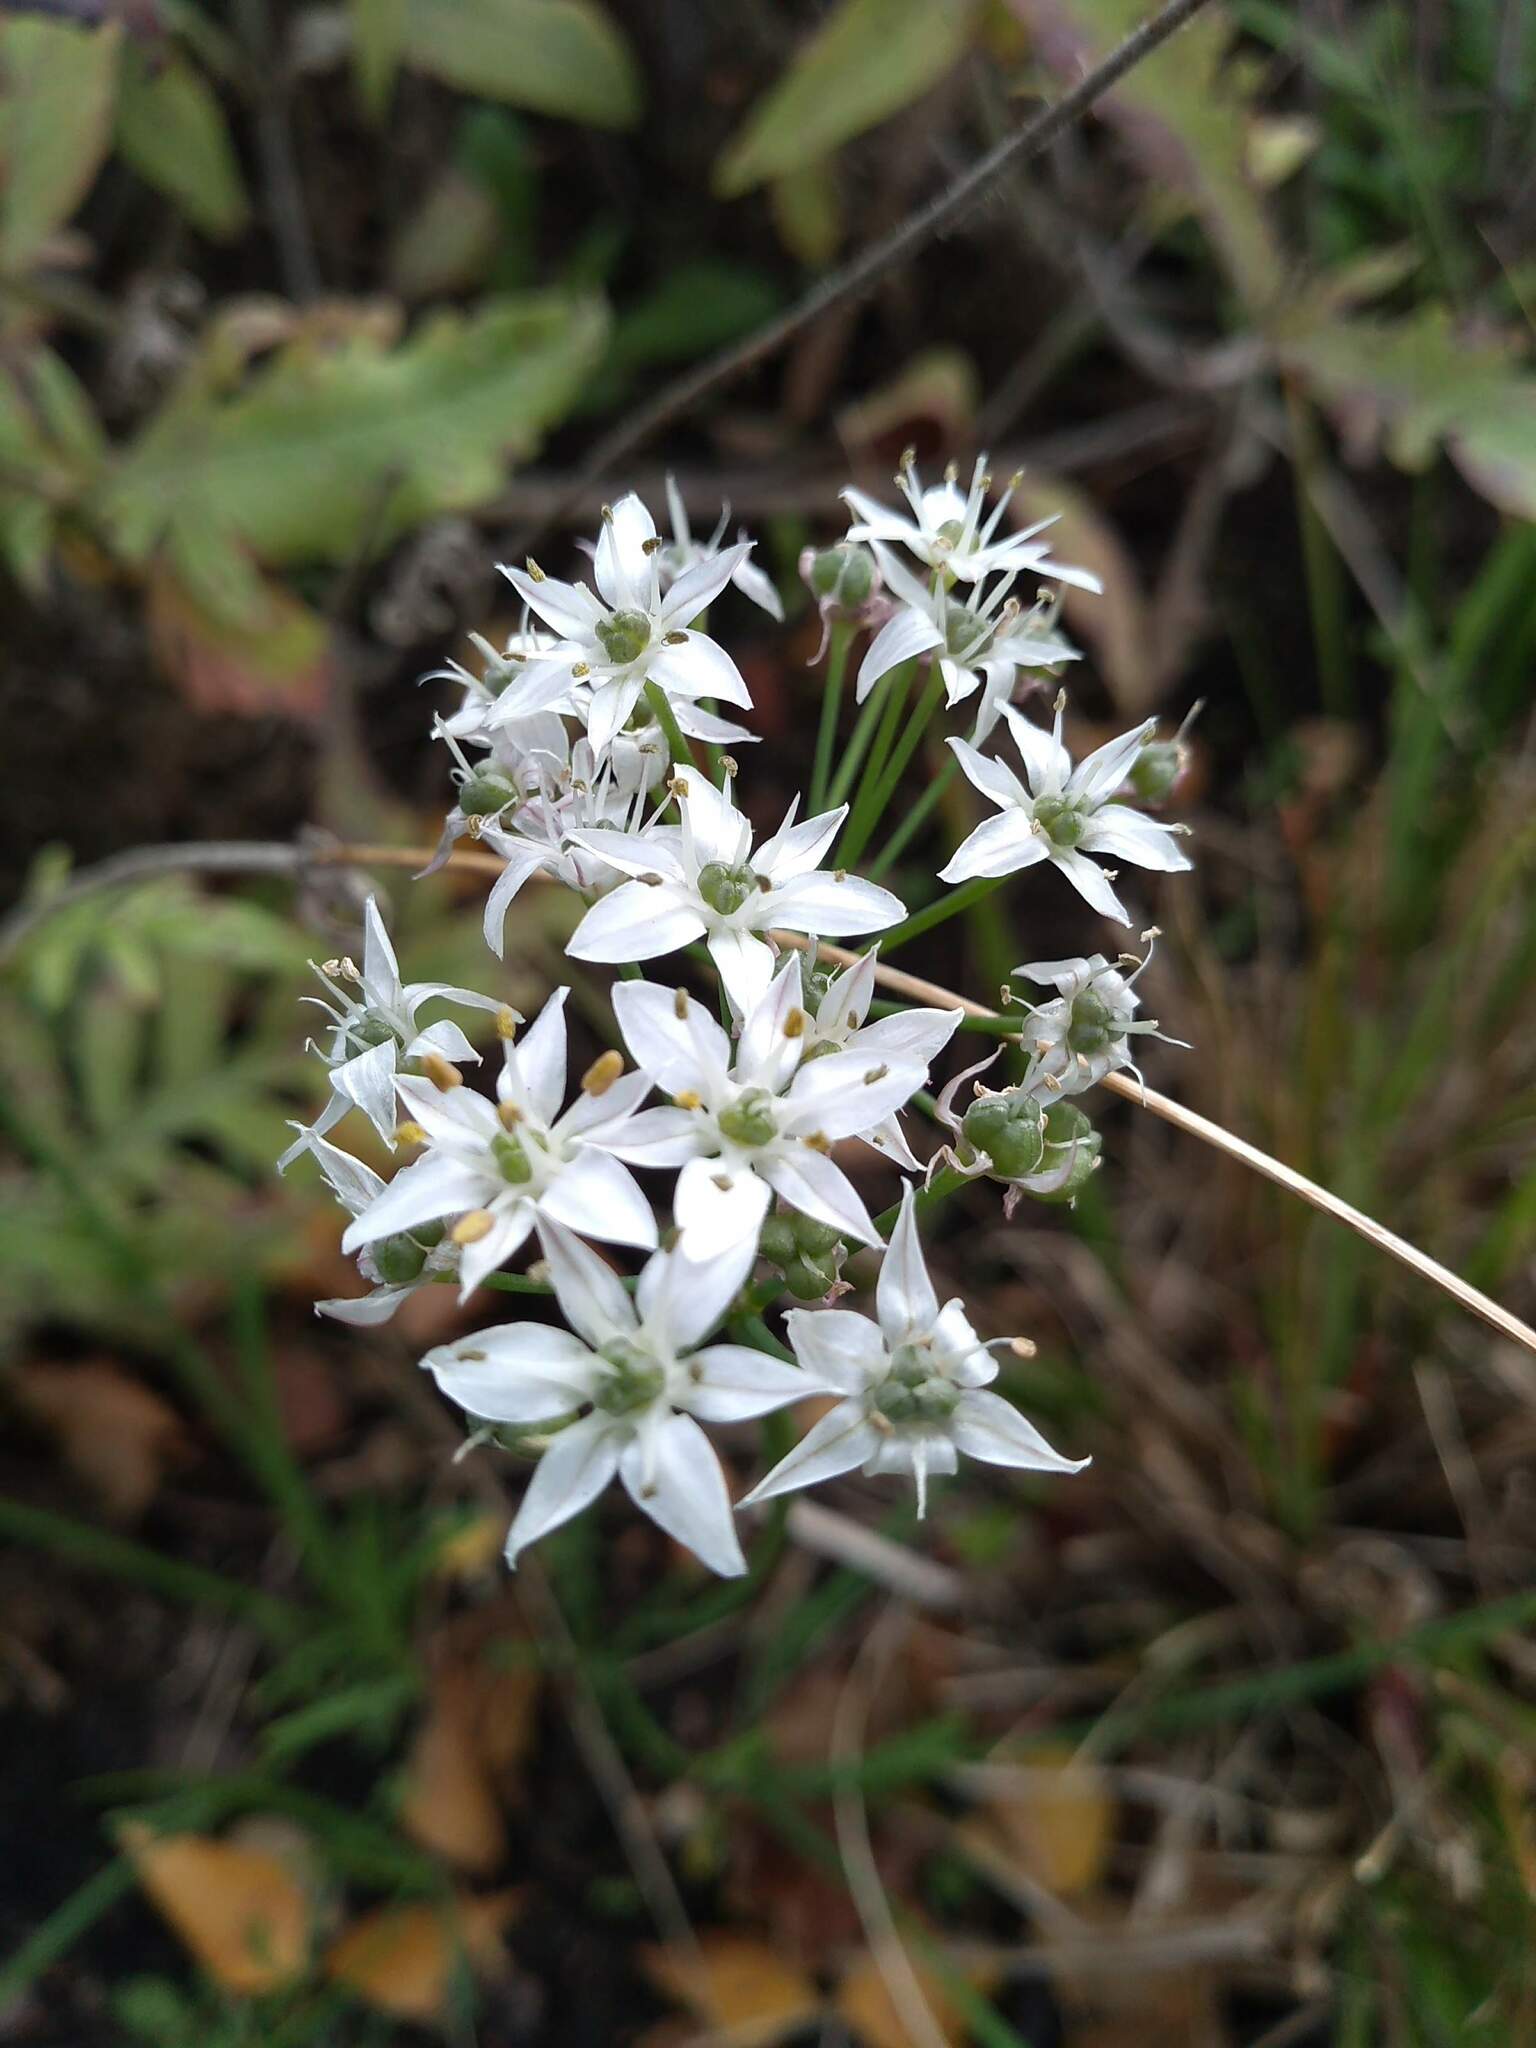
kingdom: Plantae
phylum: Tracheophyta
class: Liliopsida
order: Asparagales
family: Amaryllidaceae
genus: Allium
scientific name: Allium tuberosum
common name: Chinese chives
